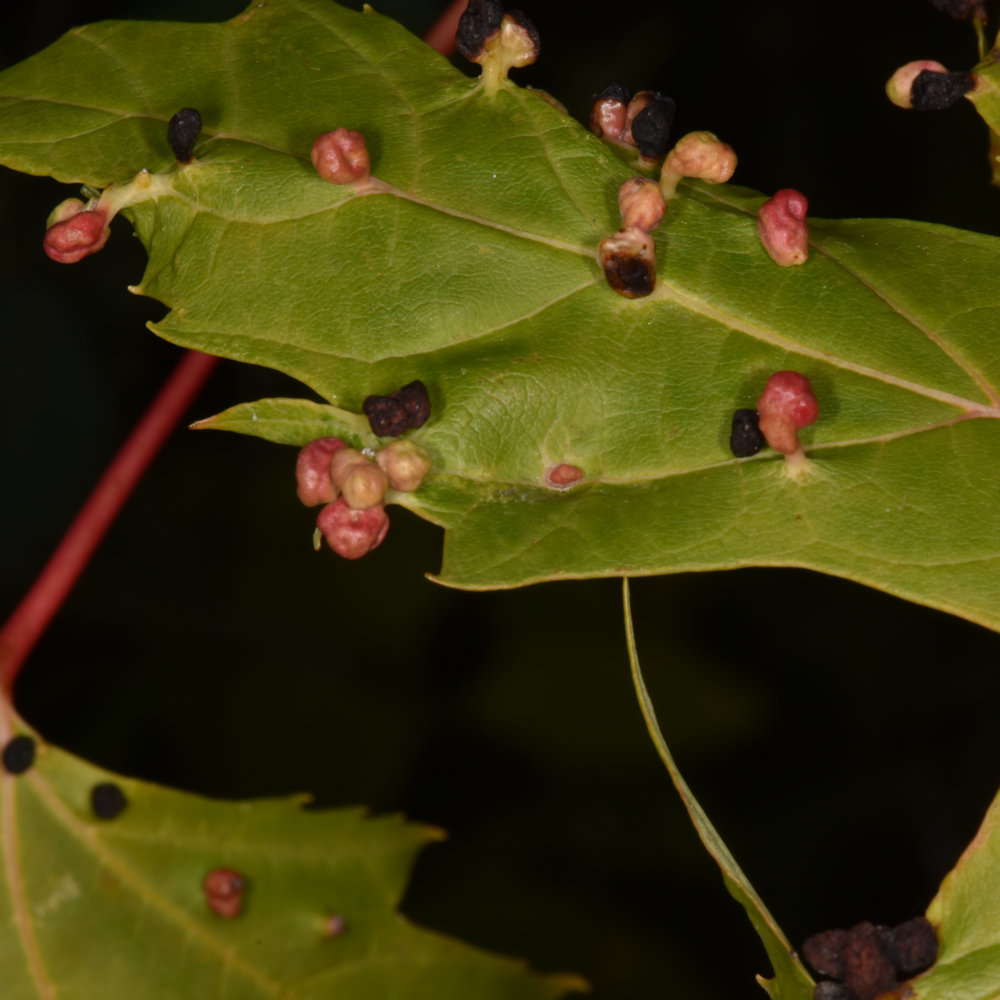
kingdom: Animalia
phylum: Arthropoda
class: Arachnida
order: Trombidiformes
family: Eriophyidae
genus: Vasates
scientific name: Vasates quadripedes
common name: Maple bladder gall mite
